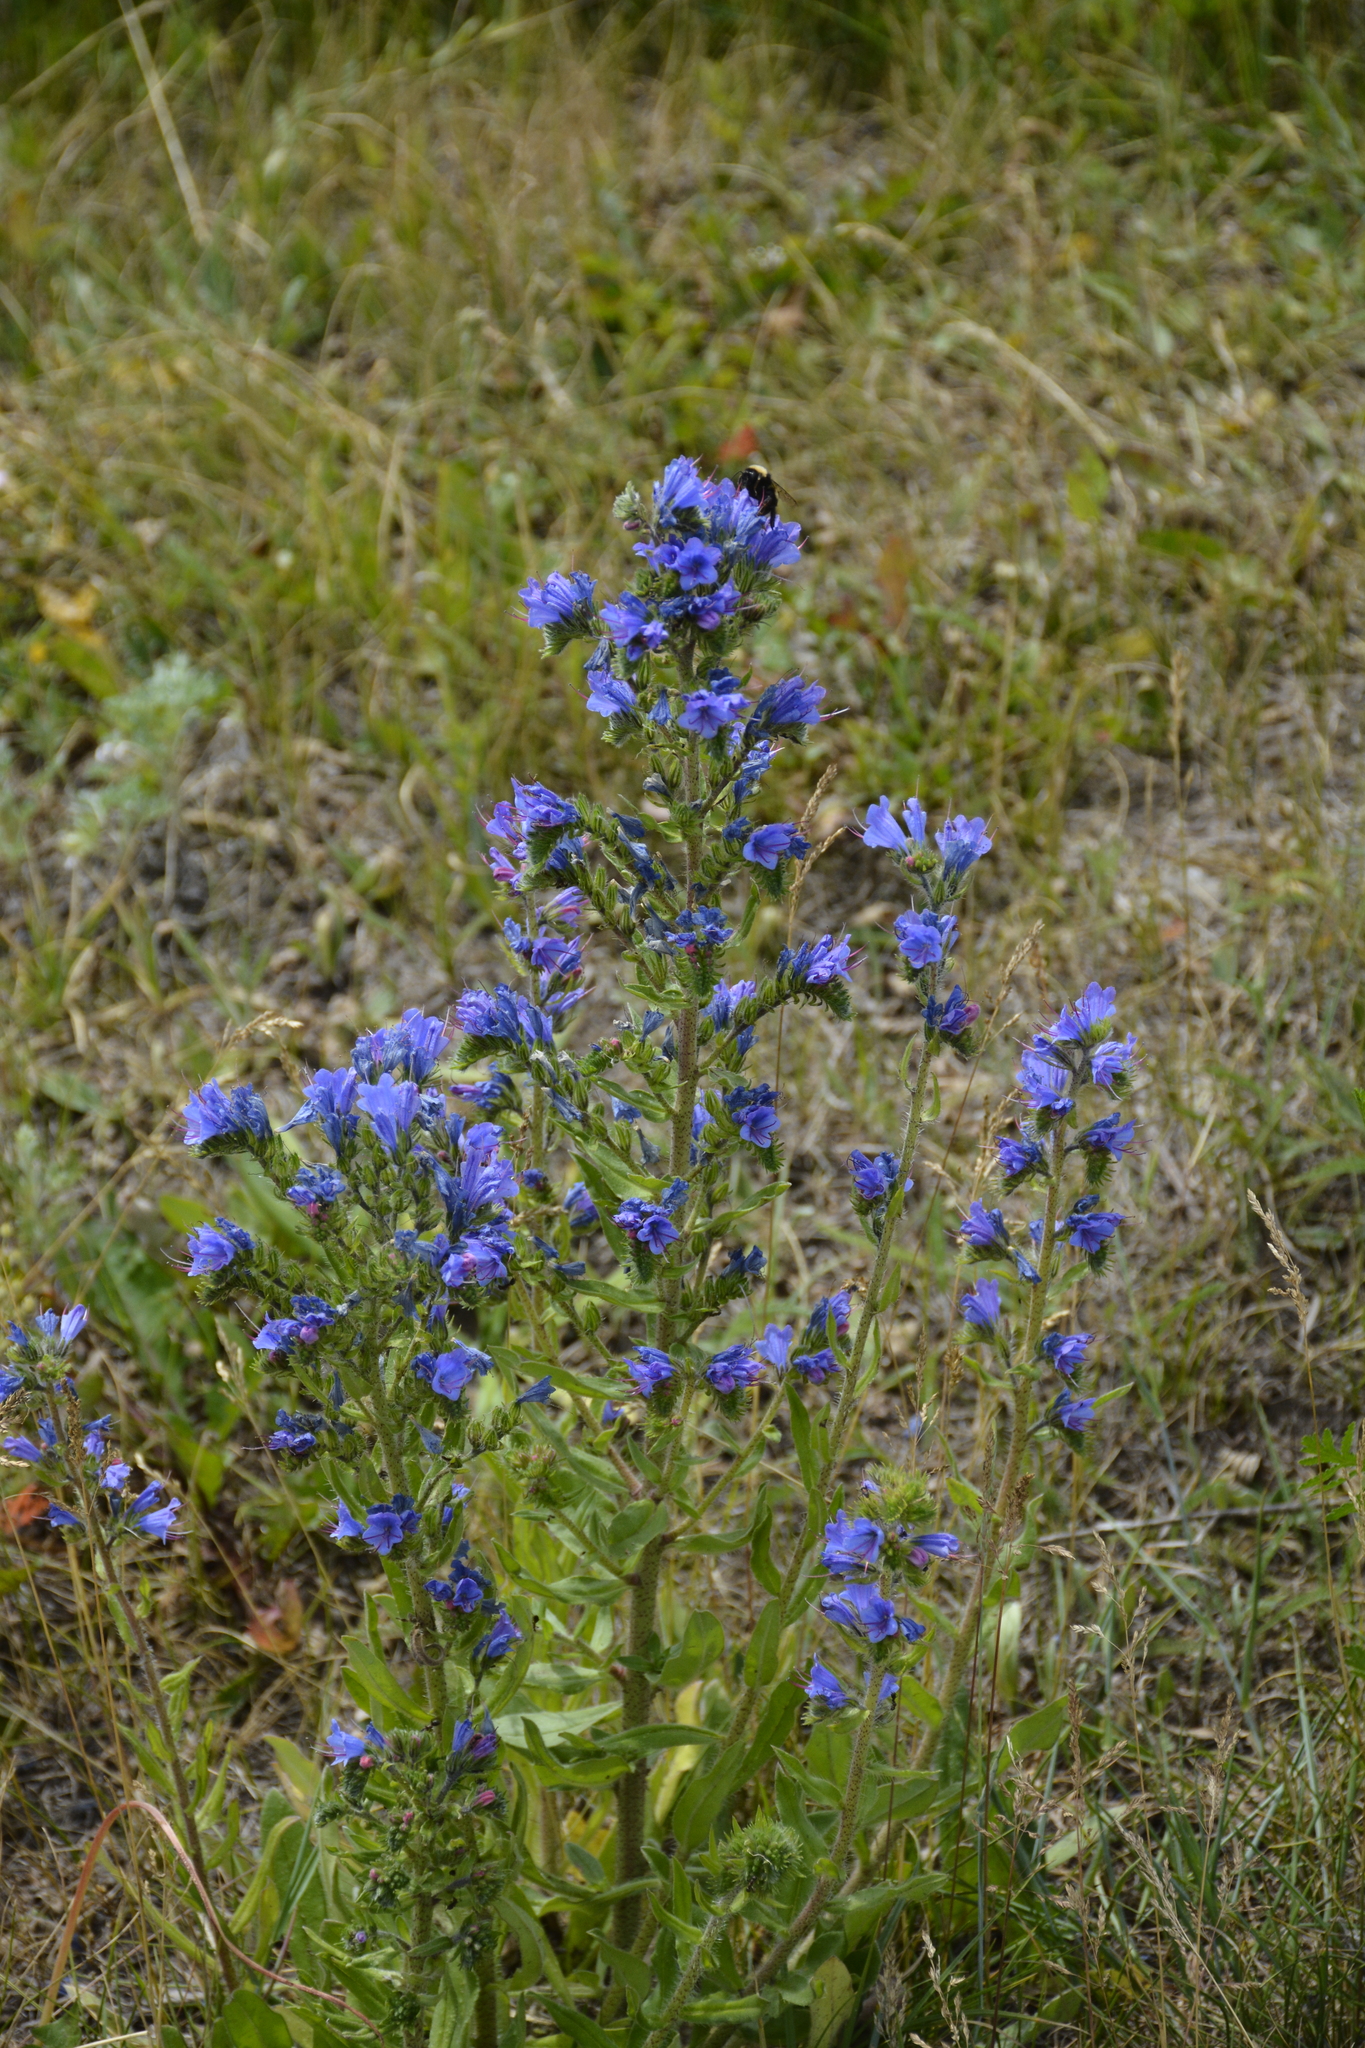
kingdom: Plantae
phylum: Tracheophyta
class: Magnoliopsida
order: Boraginales
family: Boraginaceae
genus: Echium
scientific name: Echium vulgare
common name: Common viper's bugloss
